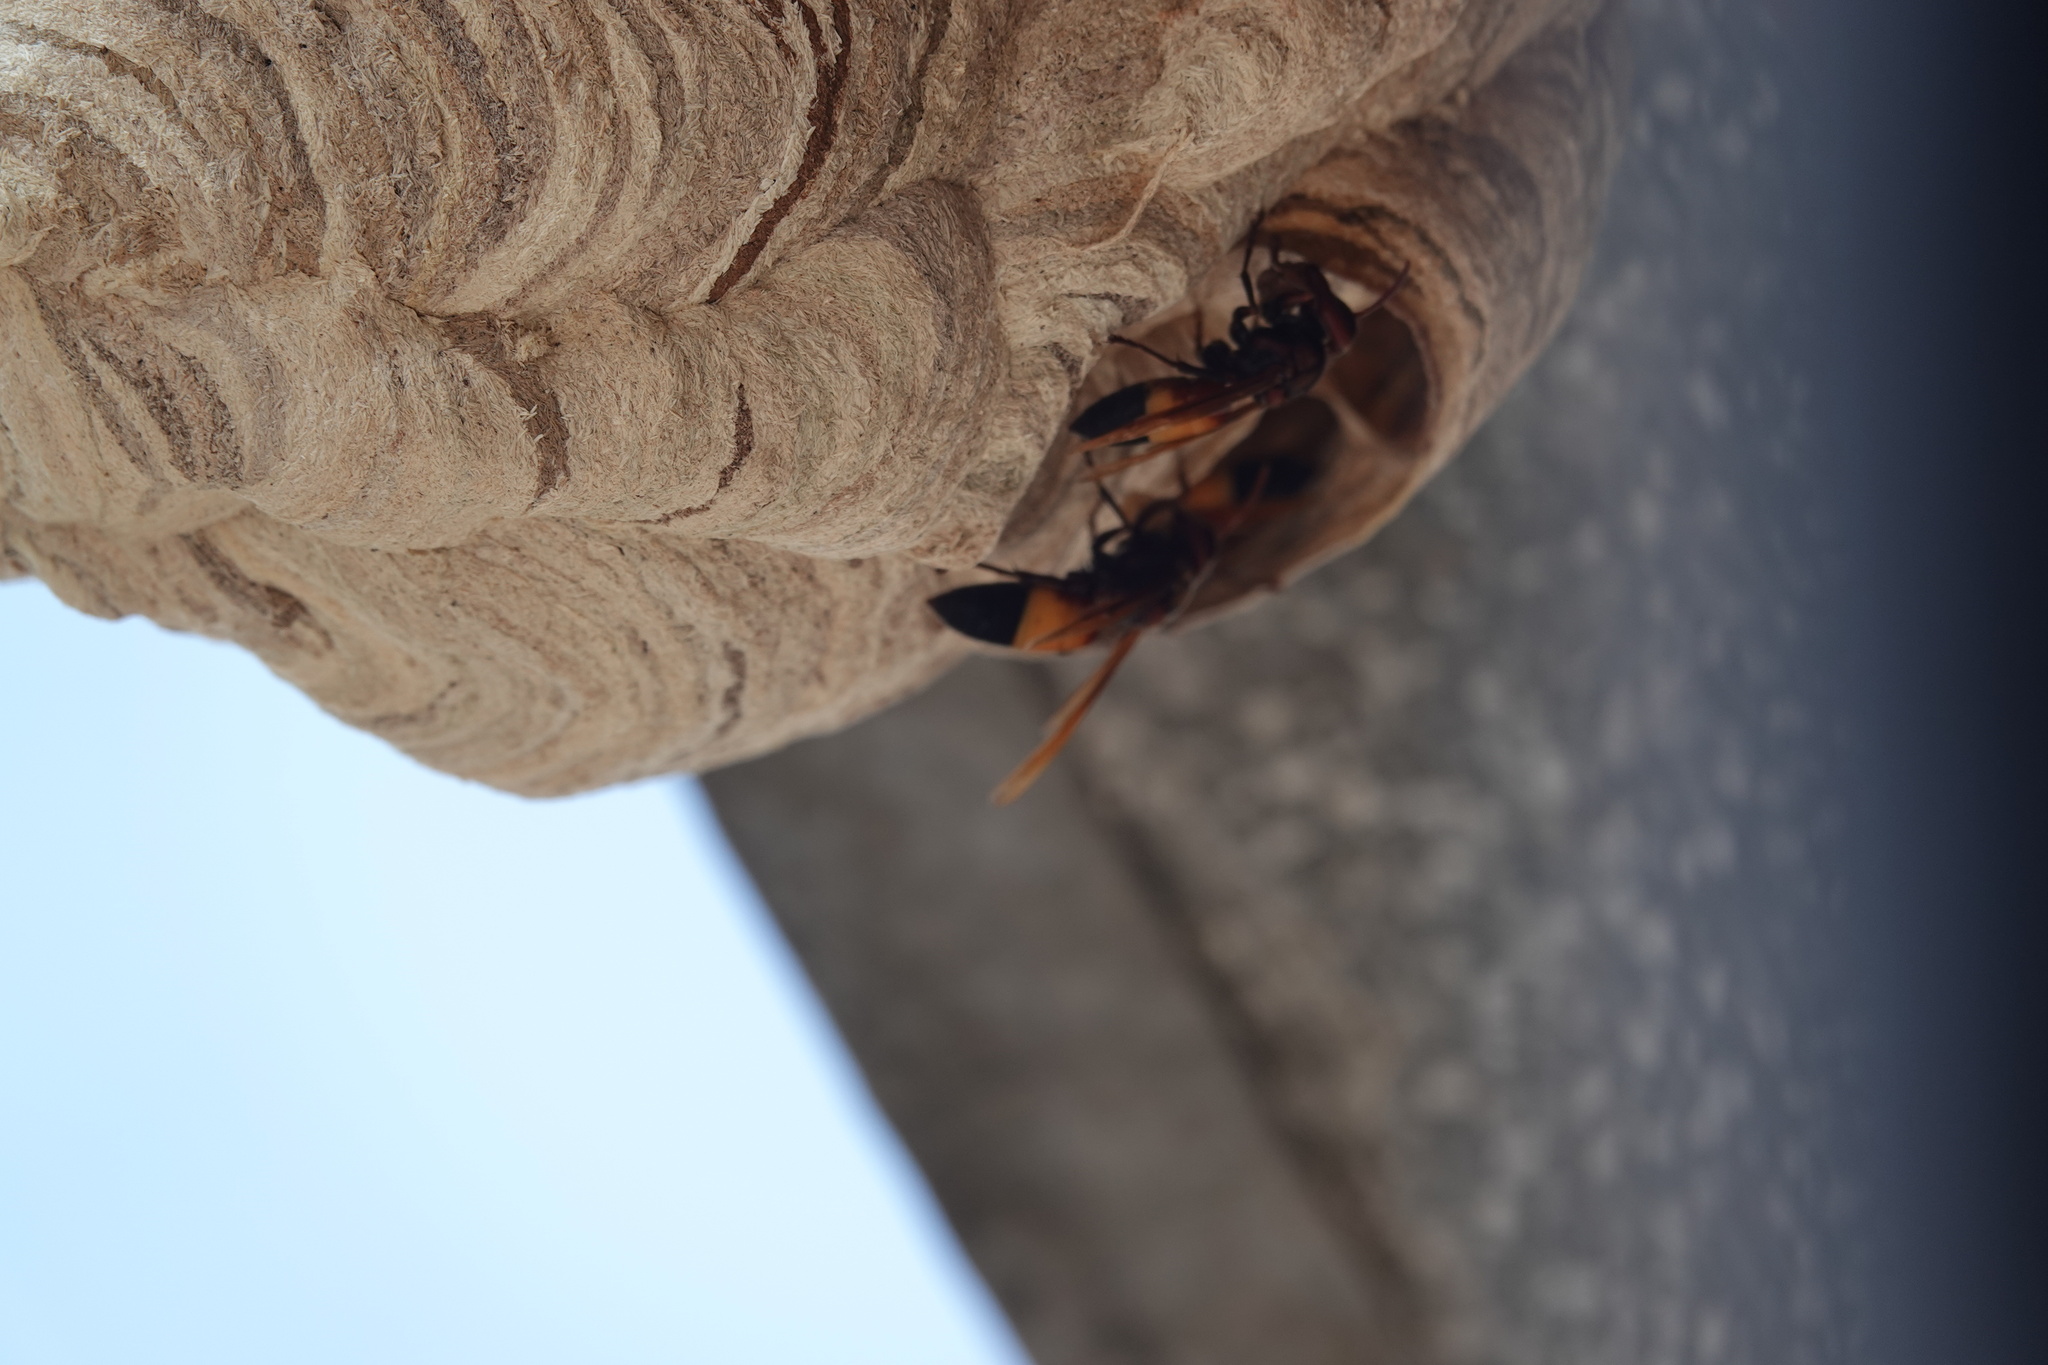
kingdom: Animalia
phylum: Arthropoda
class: Insecta
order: Hymenoptera
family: Vespidae
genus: Vespa
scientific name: Vespa affinis
